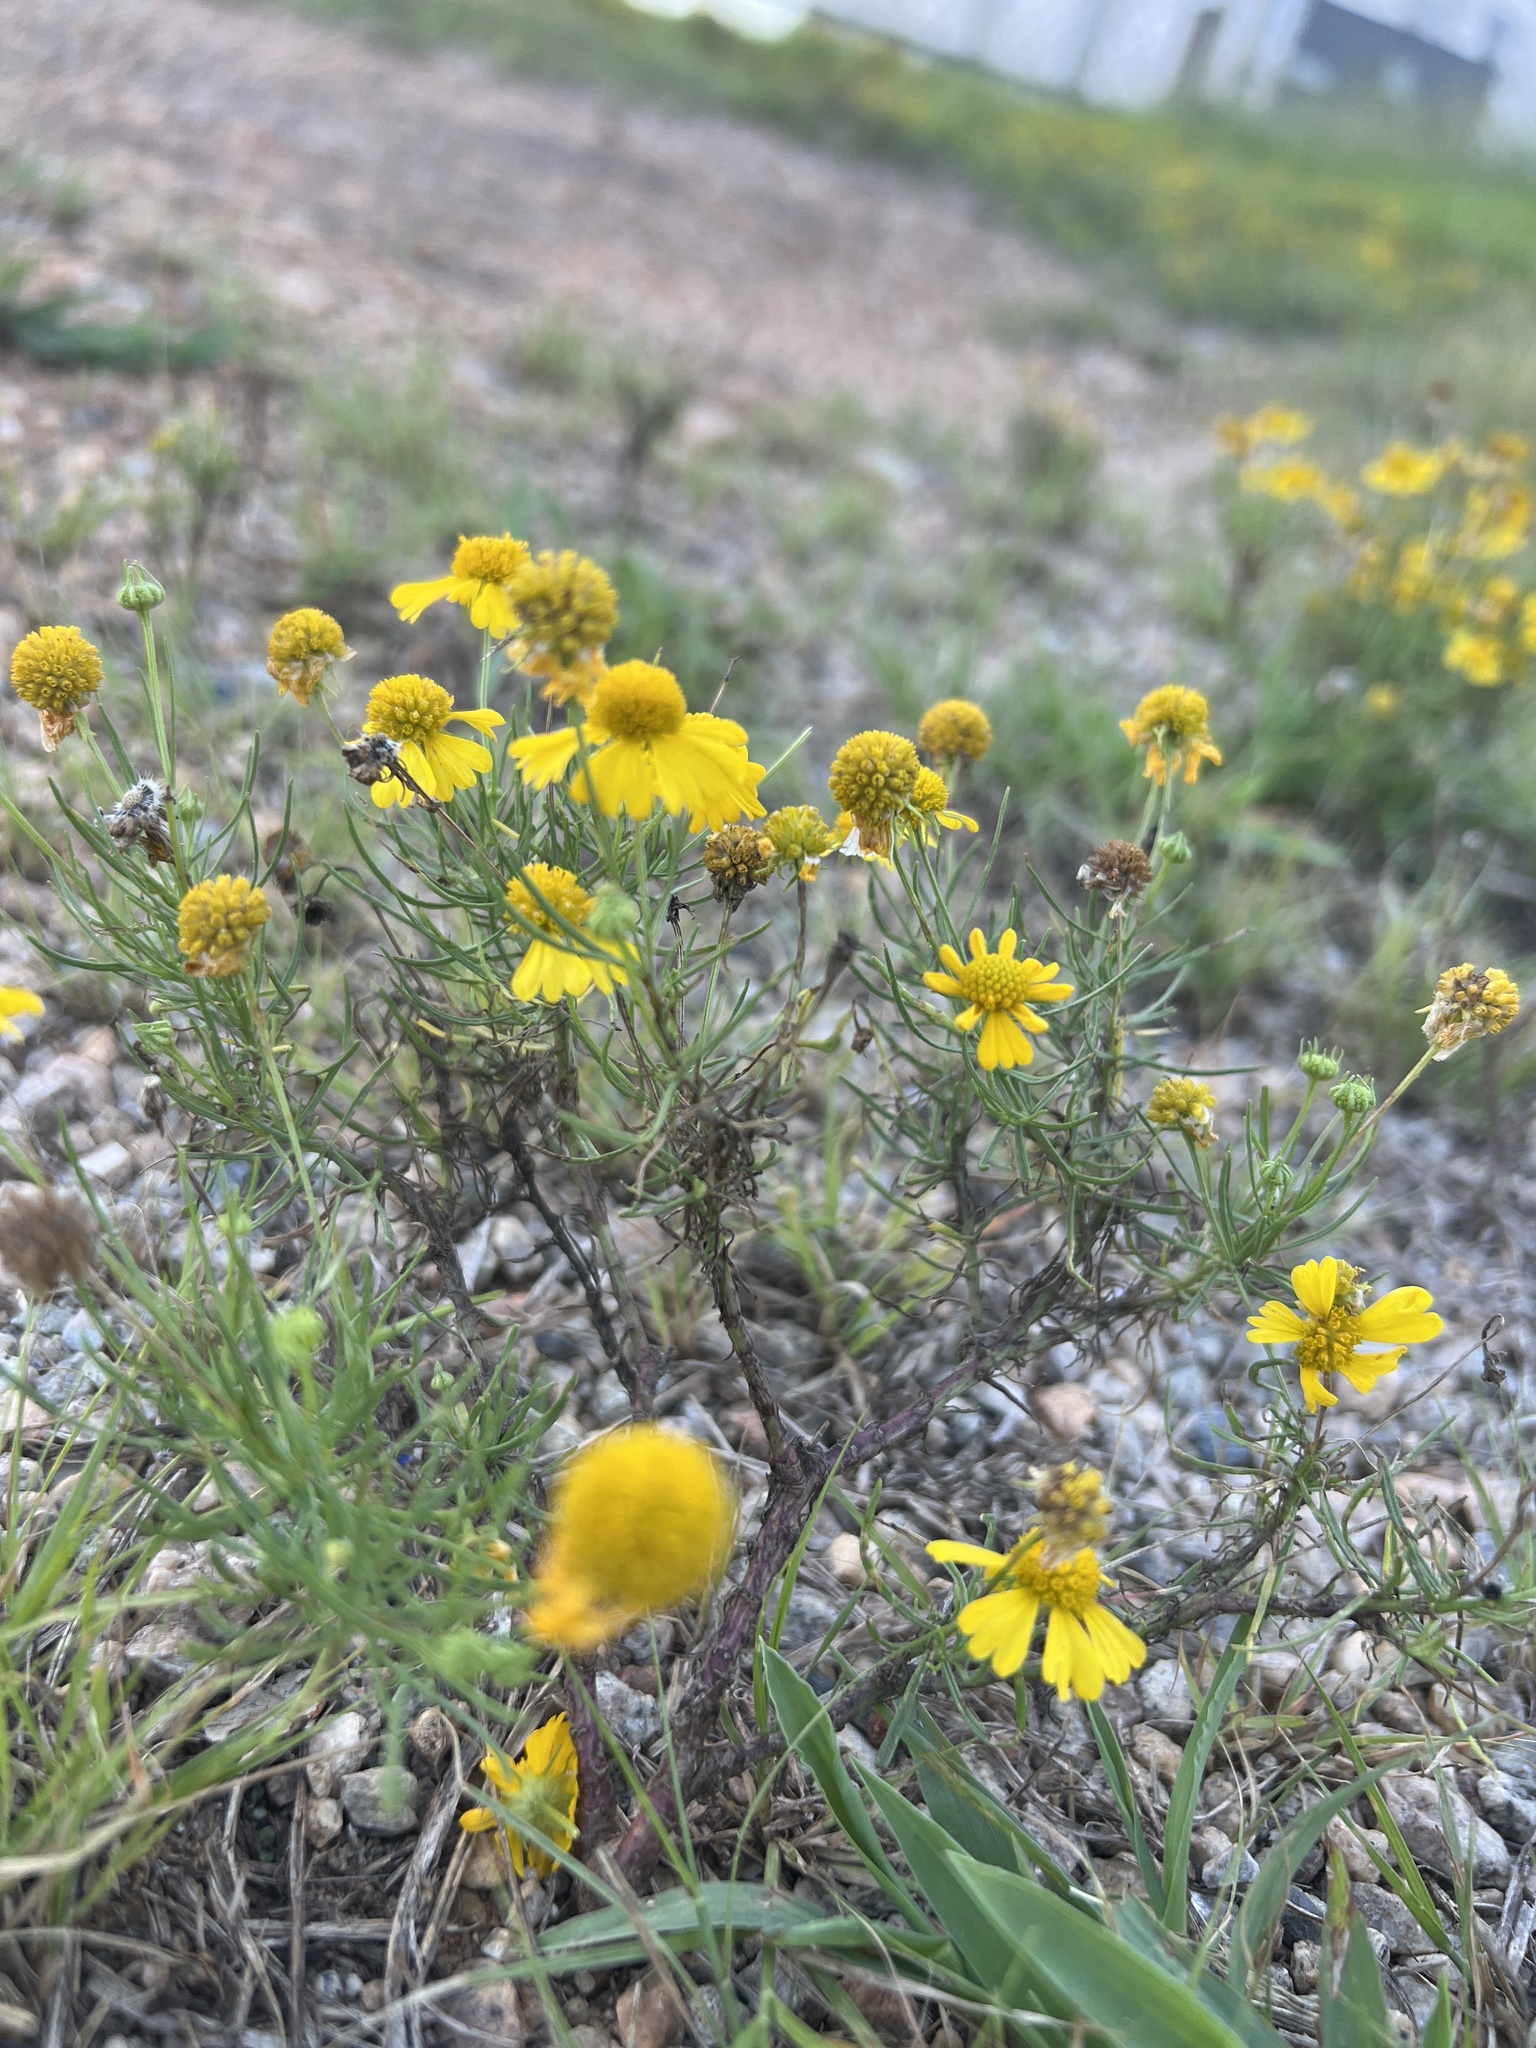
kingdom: Plantae
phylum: Tracheophyta
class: Magnoliopsida
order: Asterales
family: Asteraceae
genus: Helenium
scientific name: Helenium amarum
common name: Bitter sneezeweed
